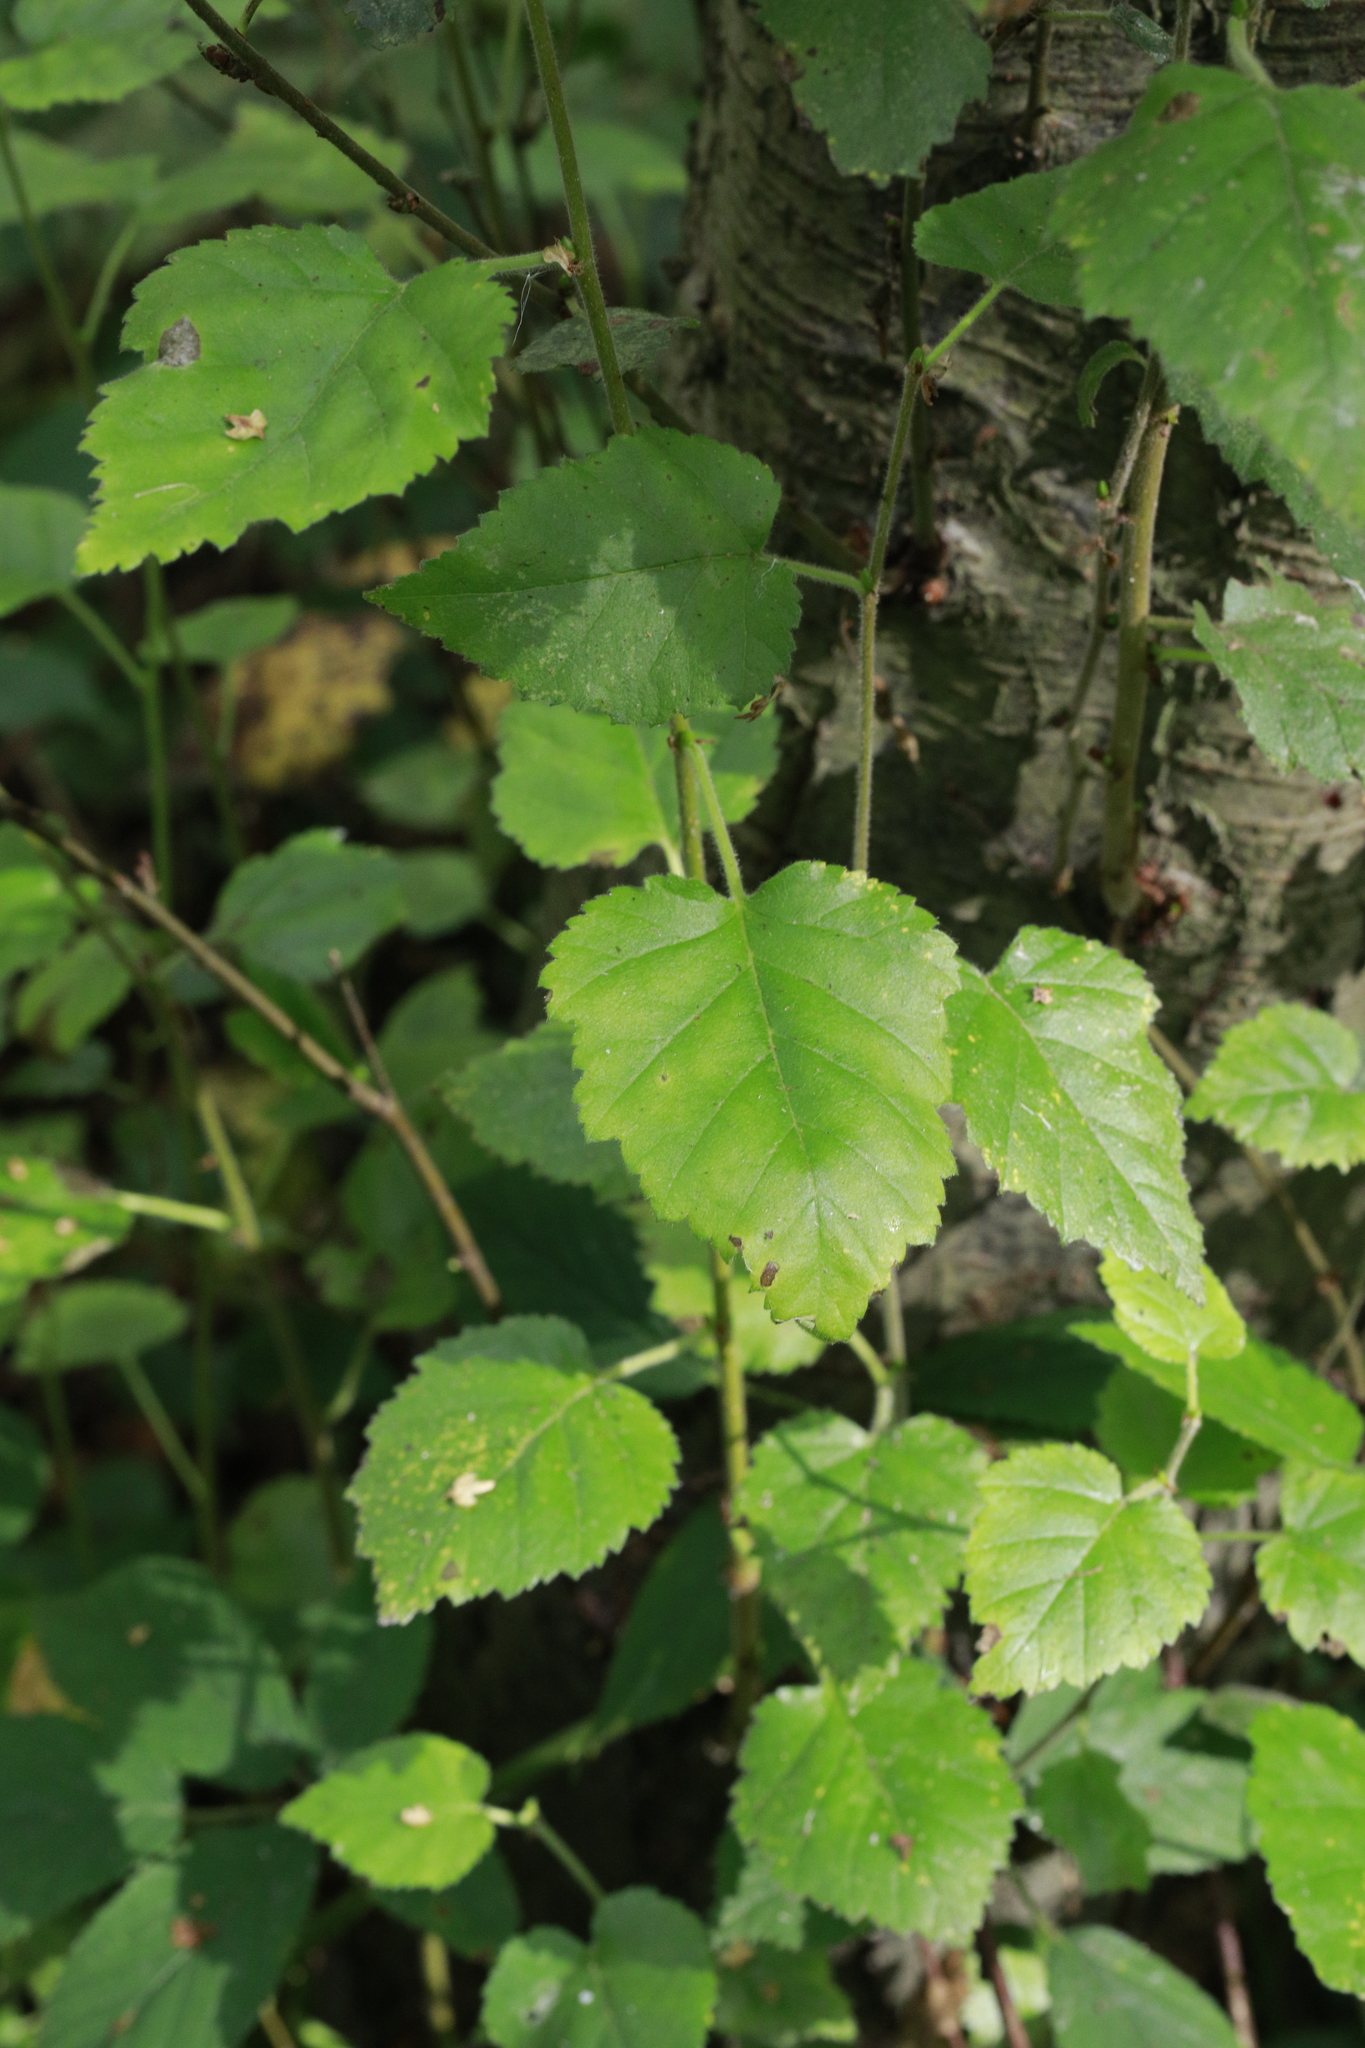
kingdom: Plantae
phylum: Tracheophyta
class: Magnoliopsida
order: Fagales
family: Betulaceae
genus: Betula
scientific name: Betula pubescens
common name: Downy birch
